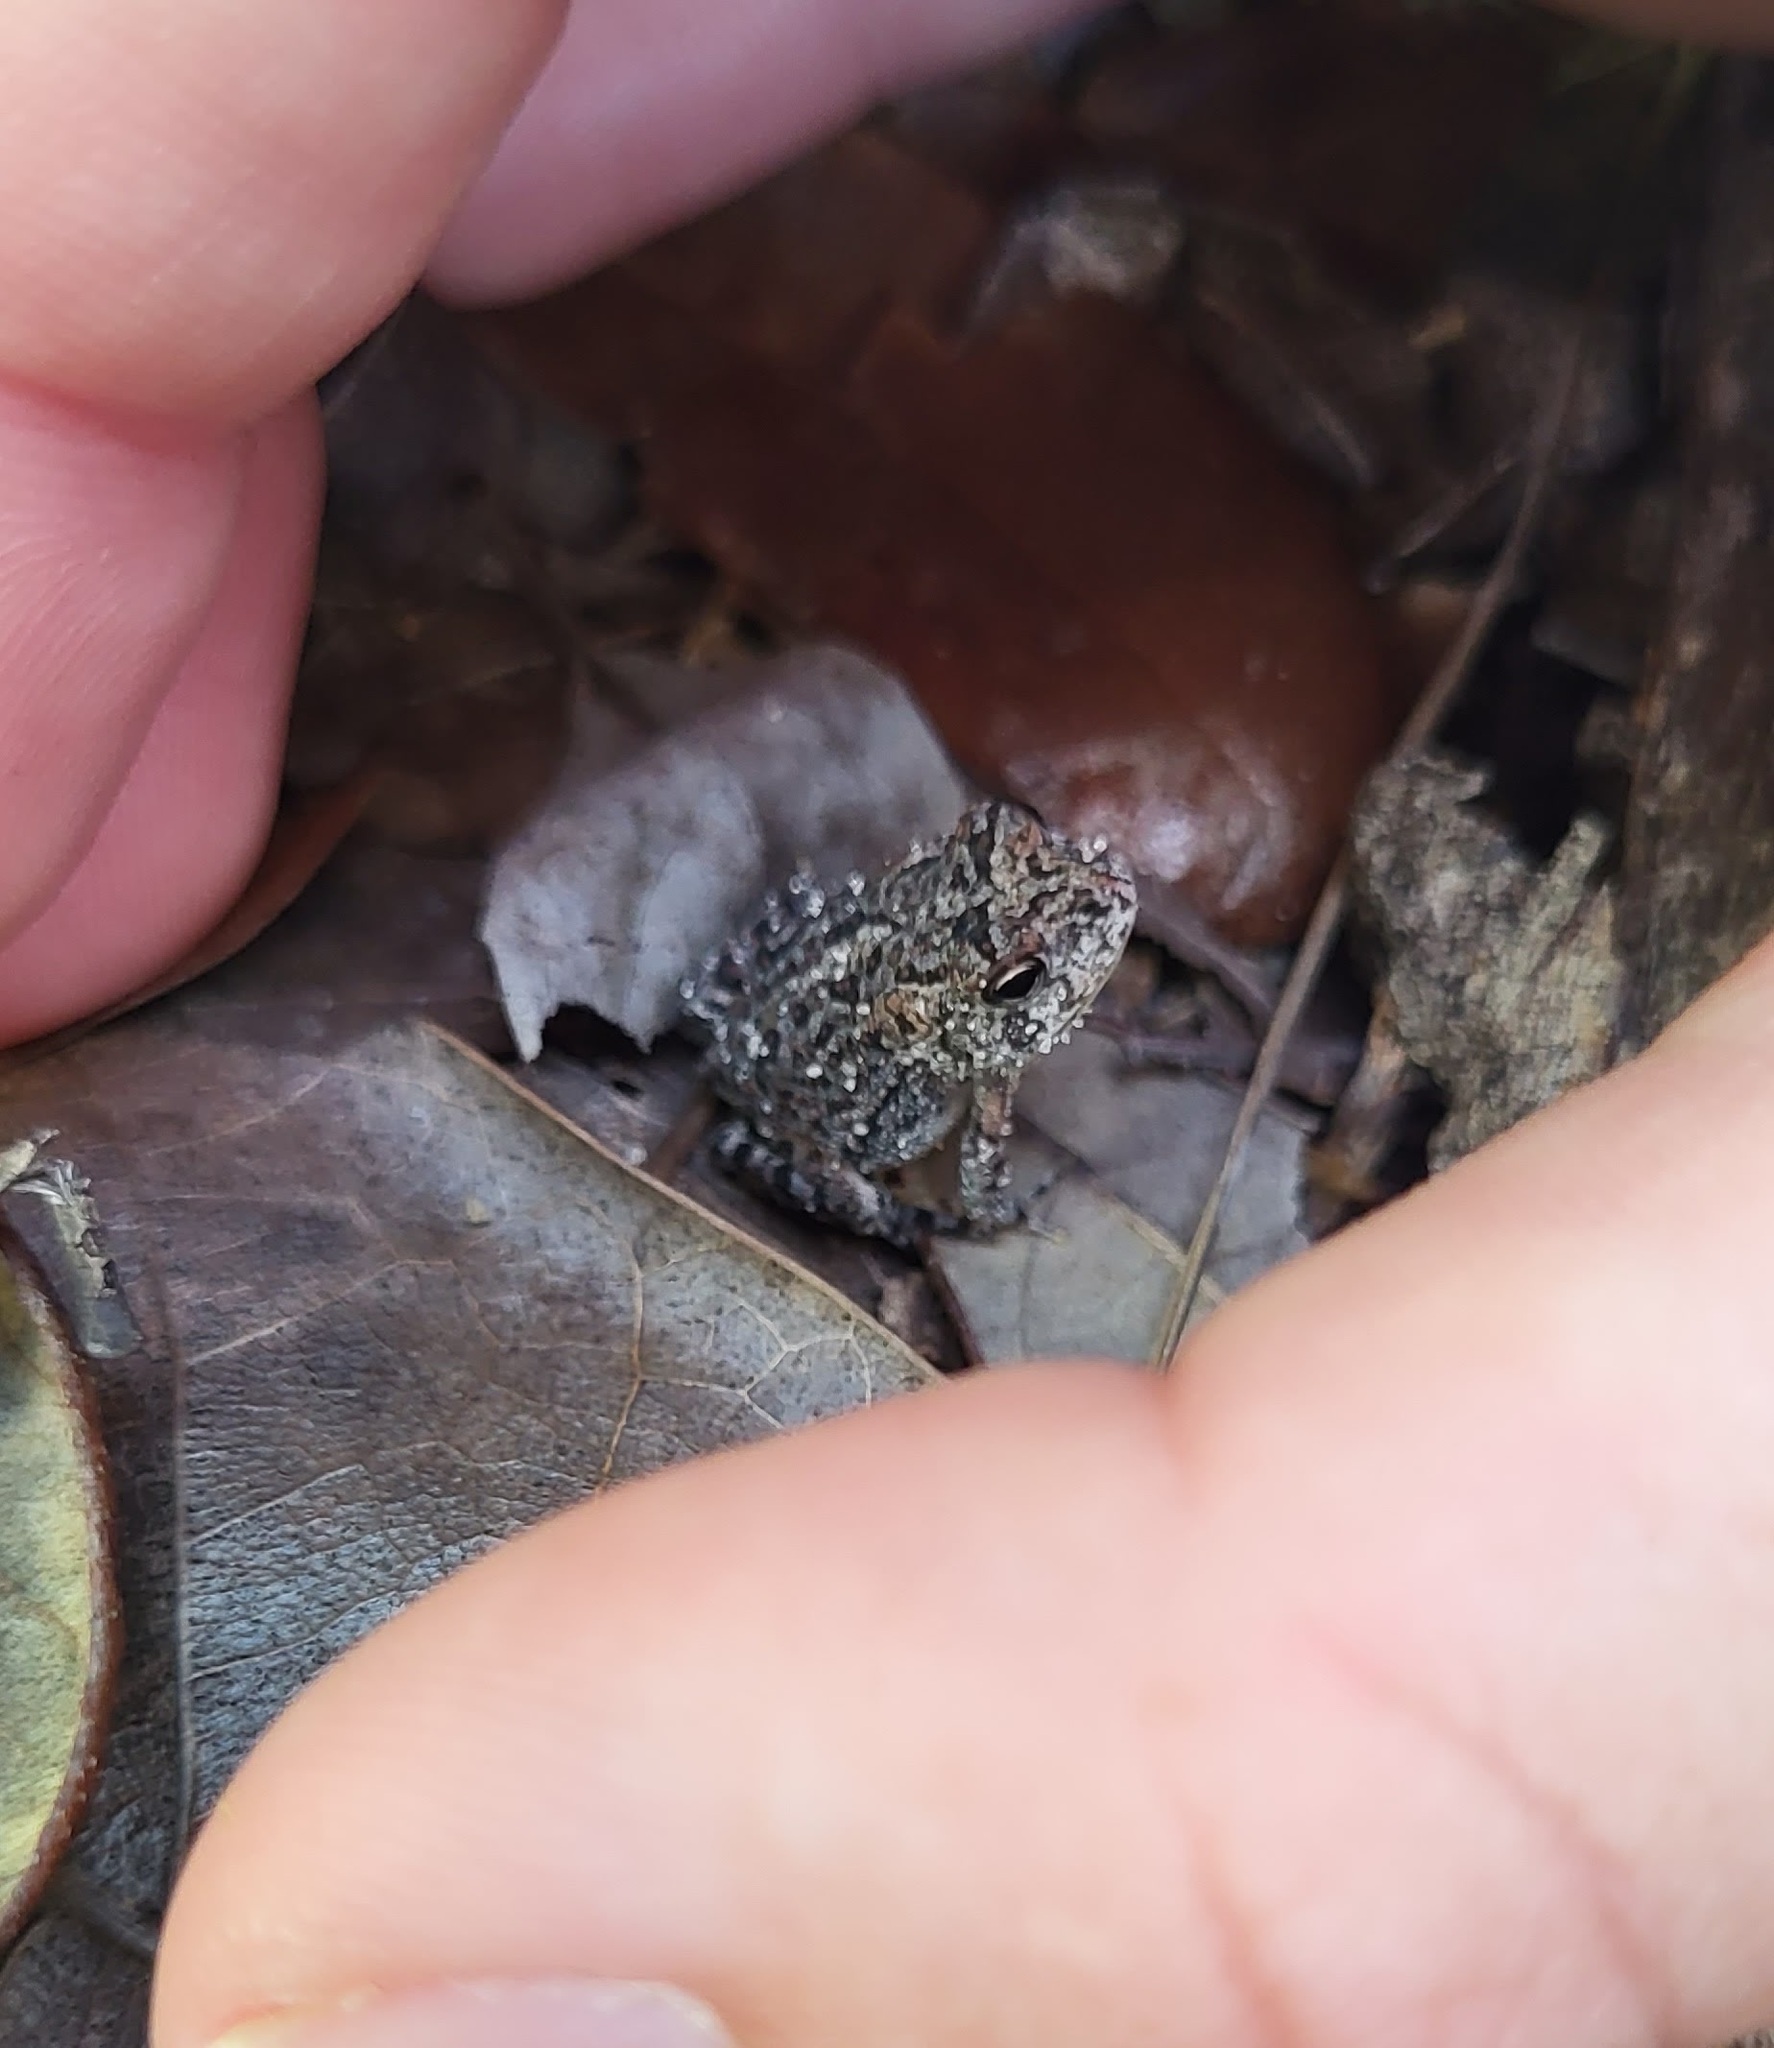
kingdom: Animalia
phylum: Chordata
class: Amphibia
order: Anura
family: Bufonidae
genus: Anaxyrus
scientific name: Anaxyrus terrestris
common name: Southern toad
